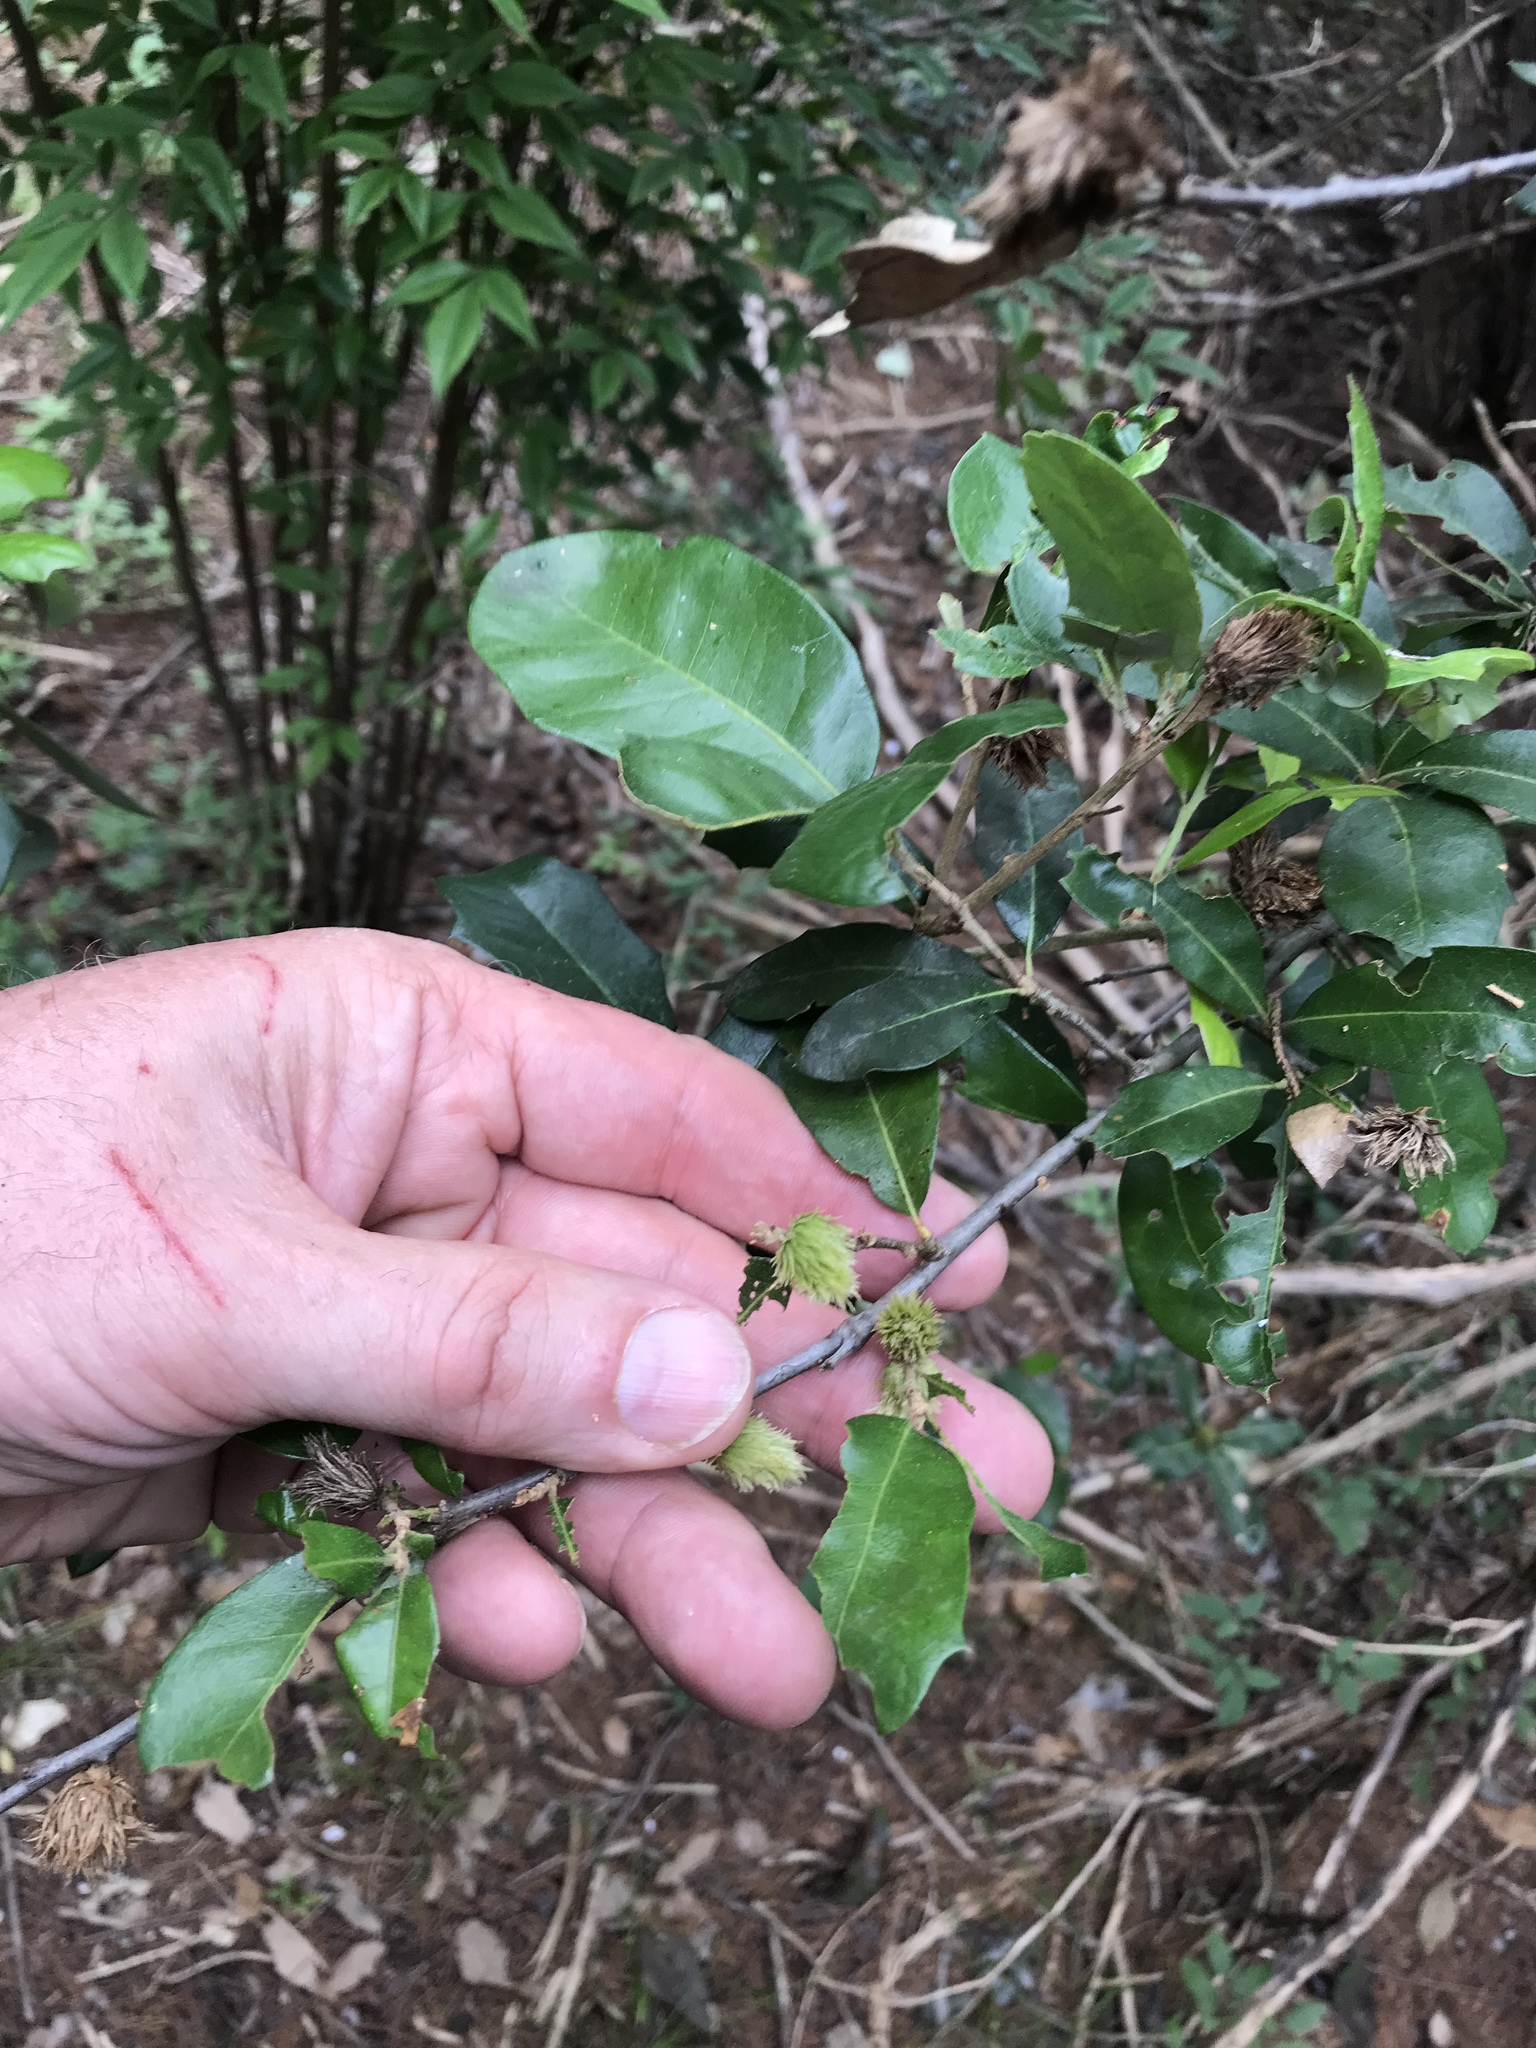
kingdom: Animalia
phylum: Arthropoda
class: Insecta
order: Hymenoptera
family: Cynipidae
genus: Andricus
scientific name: Andricus quercusfoliatus
